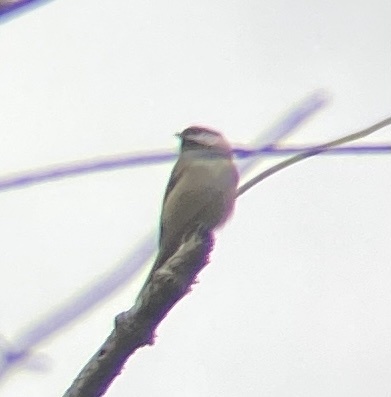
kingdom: Animalia
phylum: Chordata
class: Aves
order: Passeriformes
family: Paridae
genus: Poecile
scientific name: Poecile carolinensis
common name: Carolina chickadee
